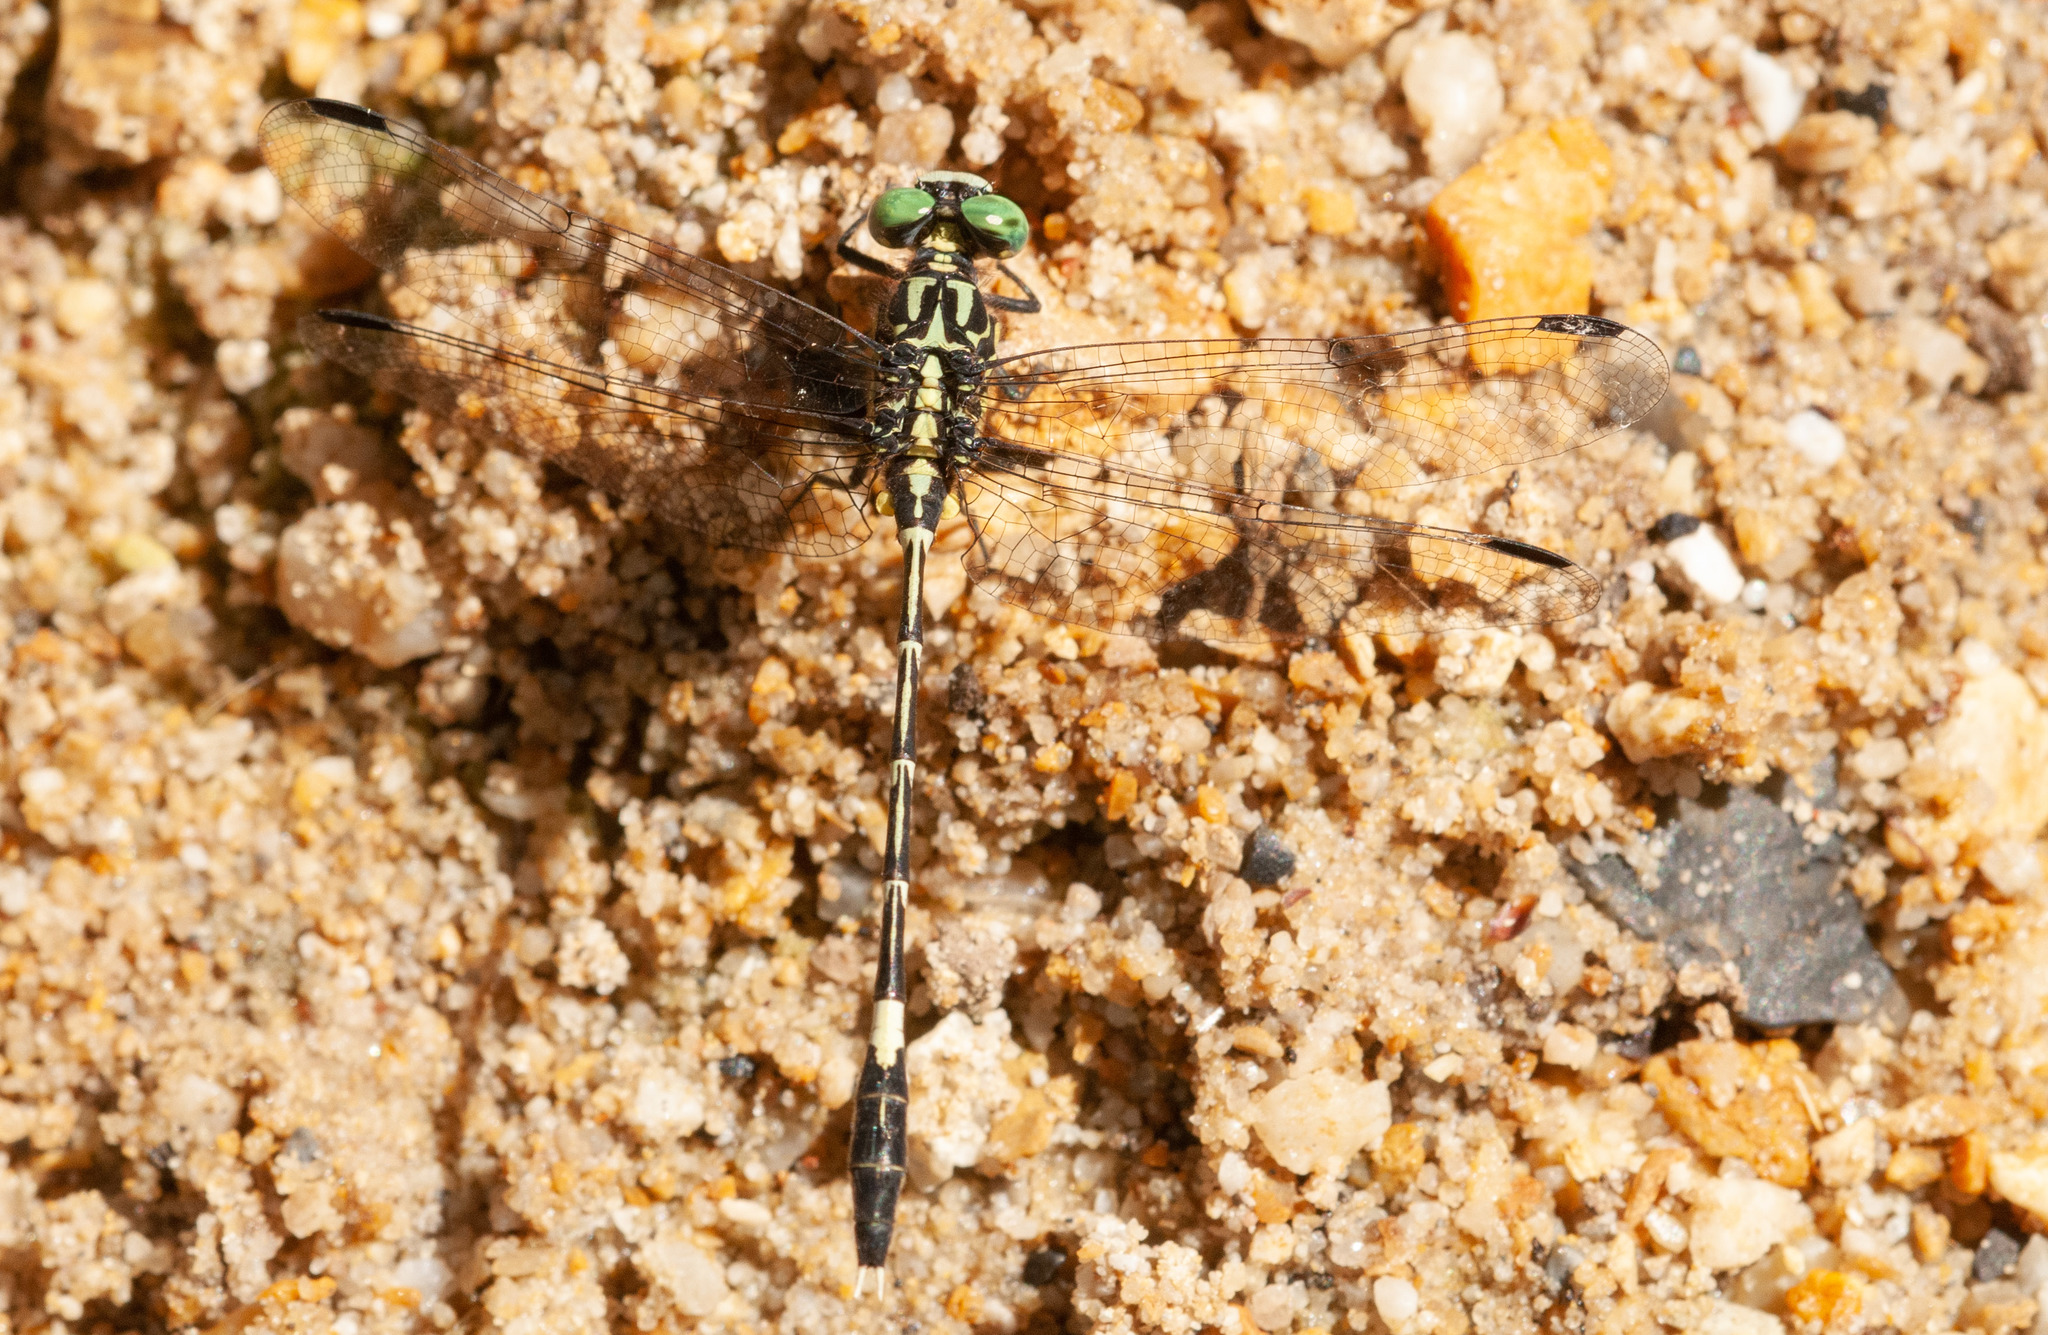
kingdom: Animalia
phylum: Arthropoda
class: Insecta
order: Odonata
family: Gomphidae
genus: Austrogomphus
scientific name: Austrogomphus amphiclitus
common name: Pale hunter
